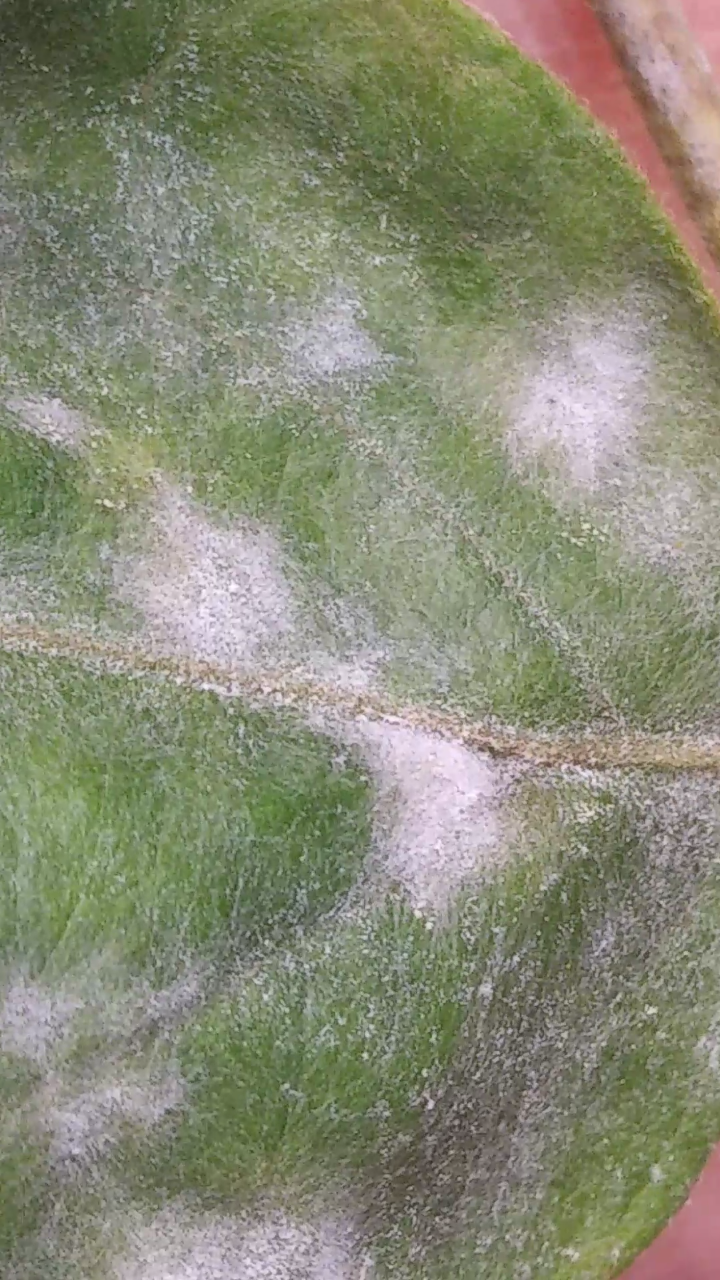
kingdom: Animalia
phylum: Arthropoda
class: Insecta
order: Lepidoptera
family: Crambidae
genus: Argyria
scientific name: Argyria nivalis
